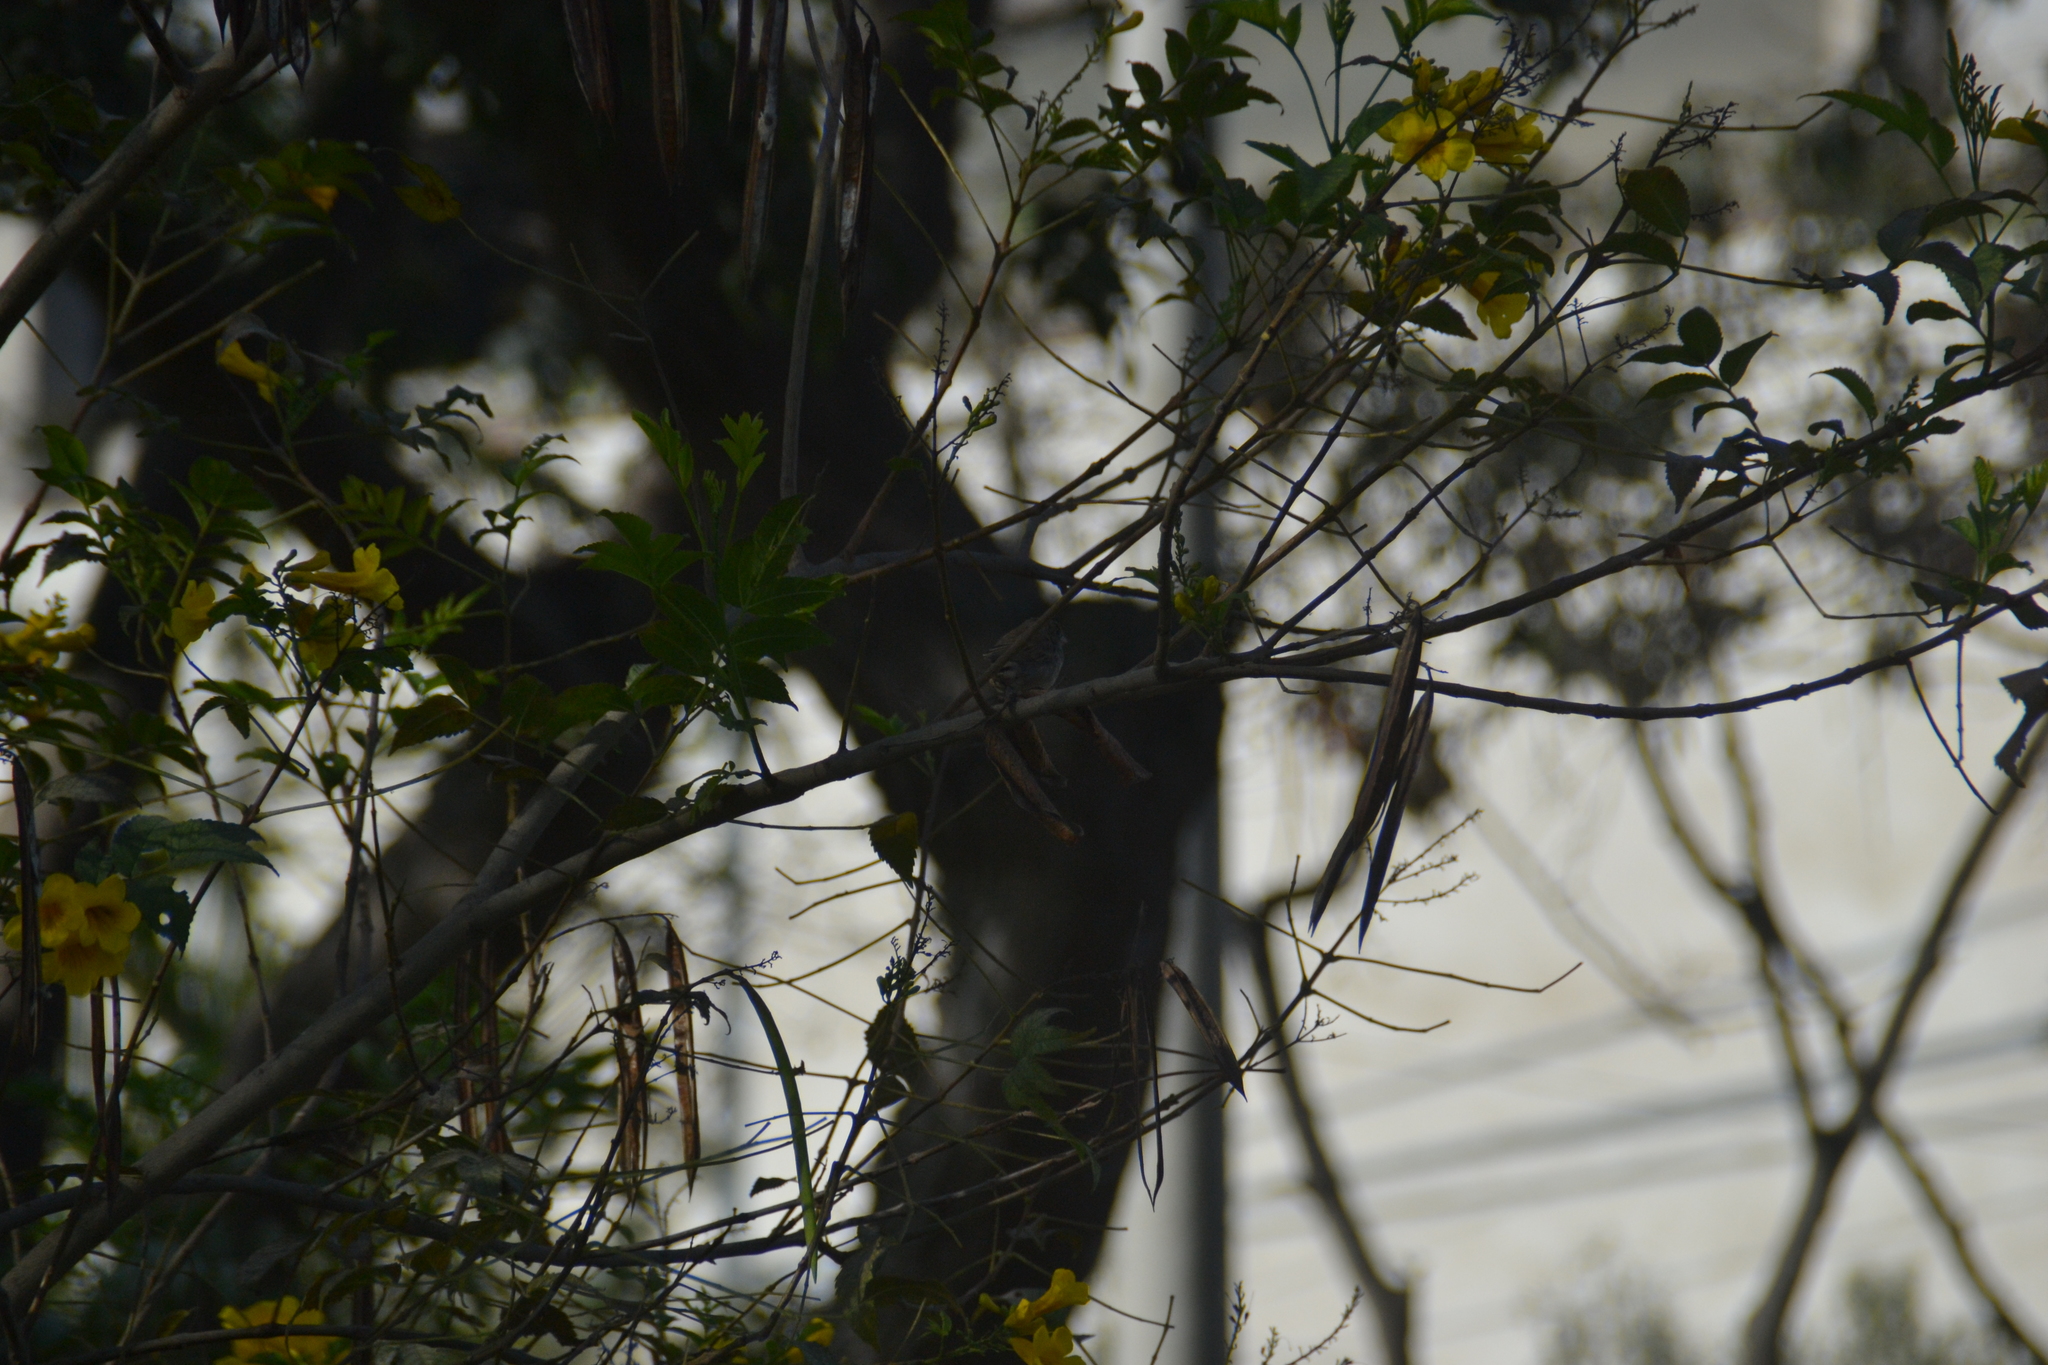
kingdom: Animalia
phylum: Chordata
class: Aves
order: Passeriformes
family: Thraupidae
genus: Volatinia
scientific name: Volatinia jacarina
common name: Blue-black grassquit
